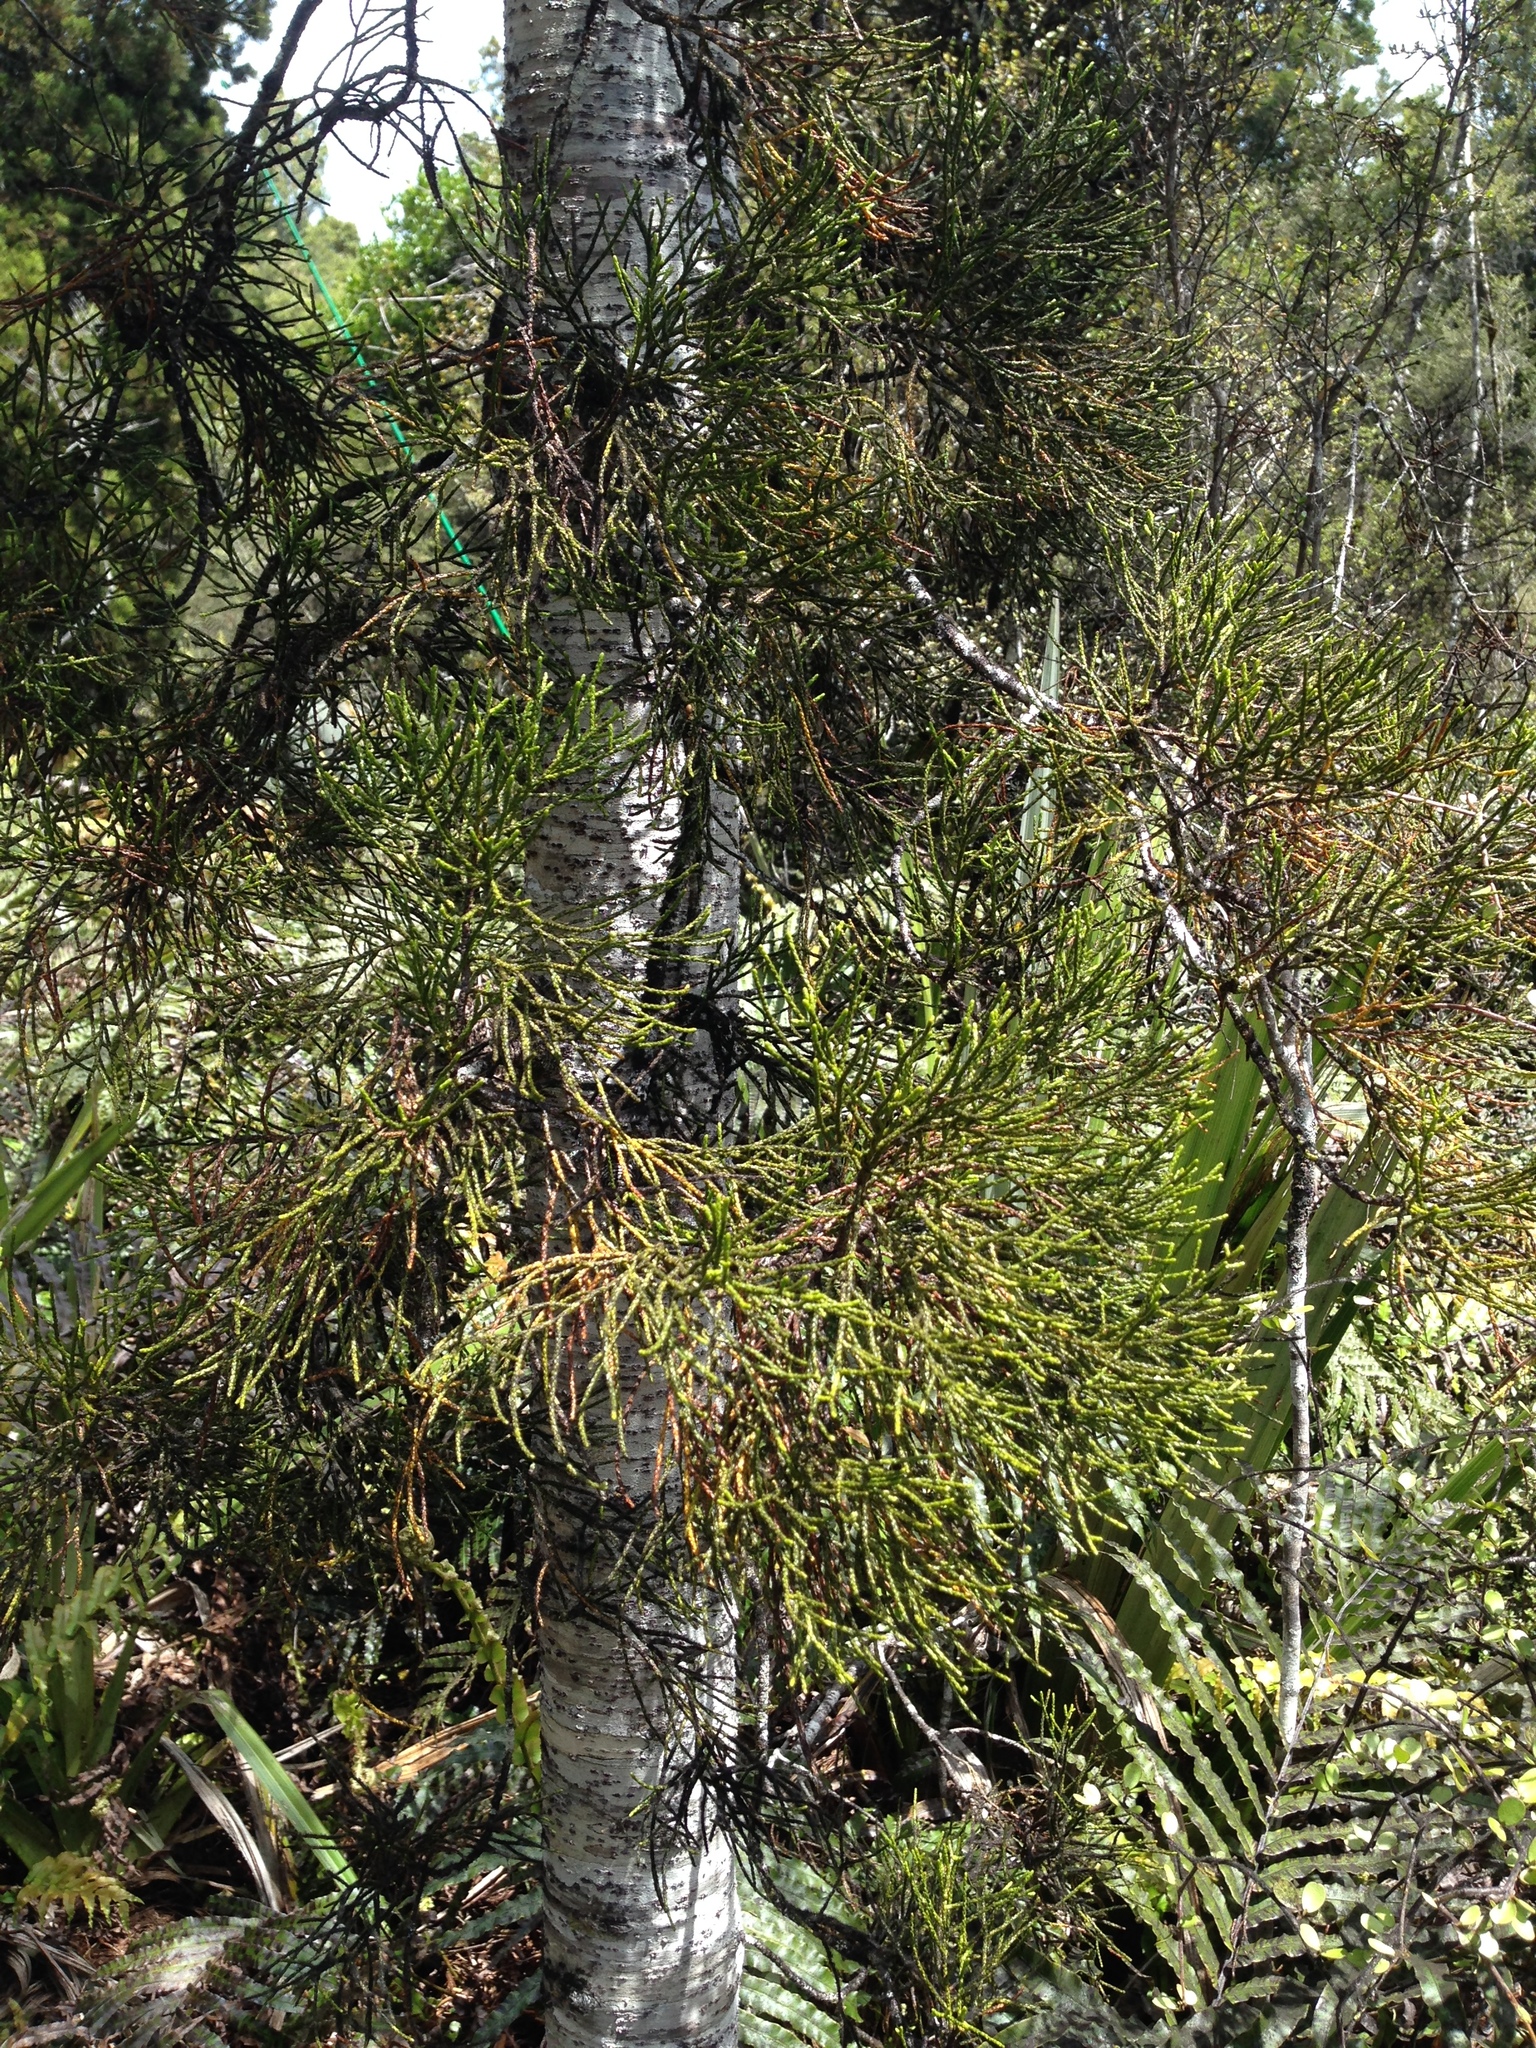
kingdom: Plantae
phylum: Tracheophyta
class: Pinopsida
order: Pinales
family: Podocarpaceae
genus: Manoao
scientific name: Manoao colensoi
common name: Silver pine
